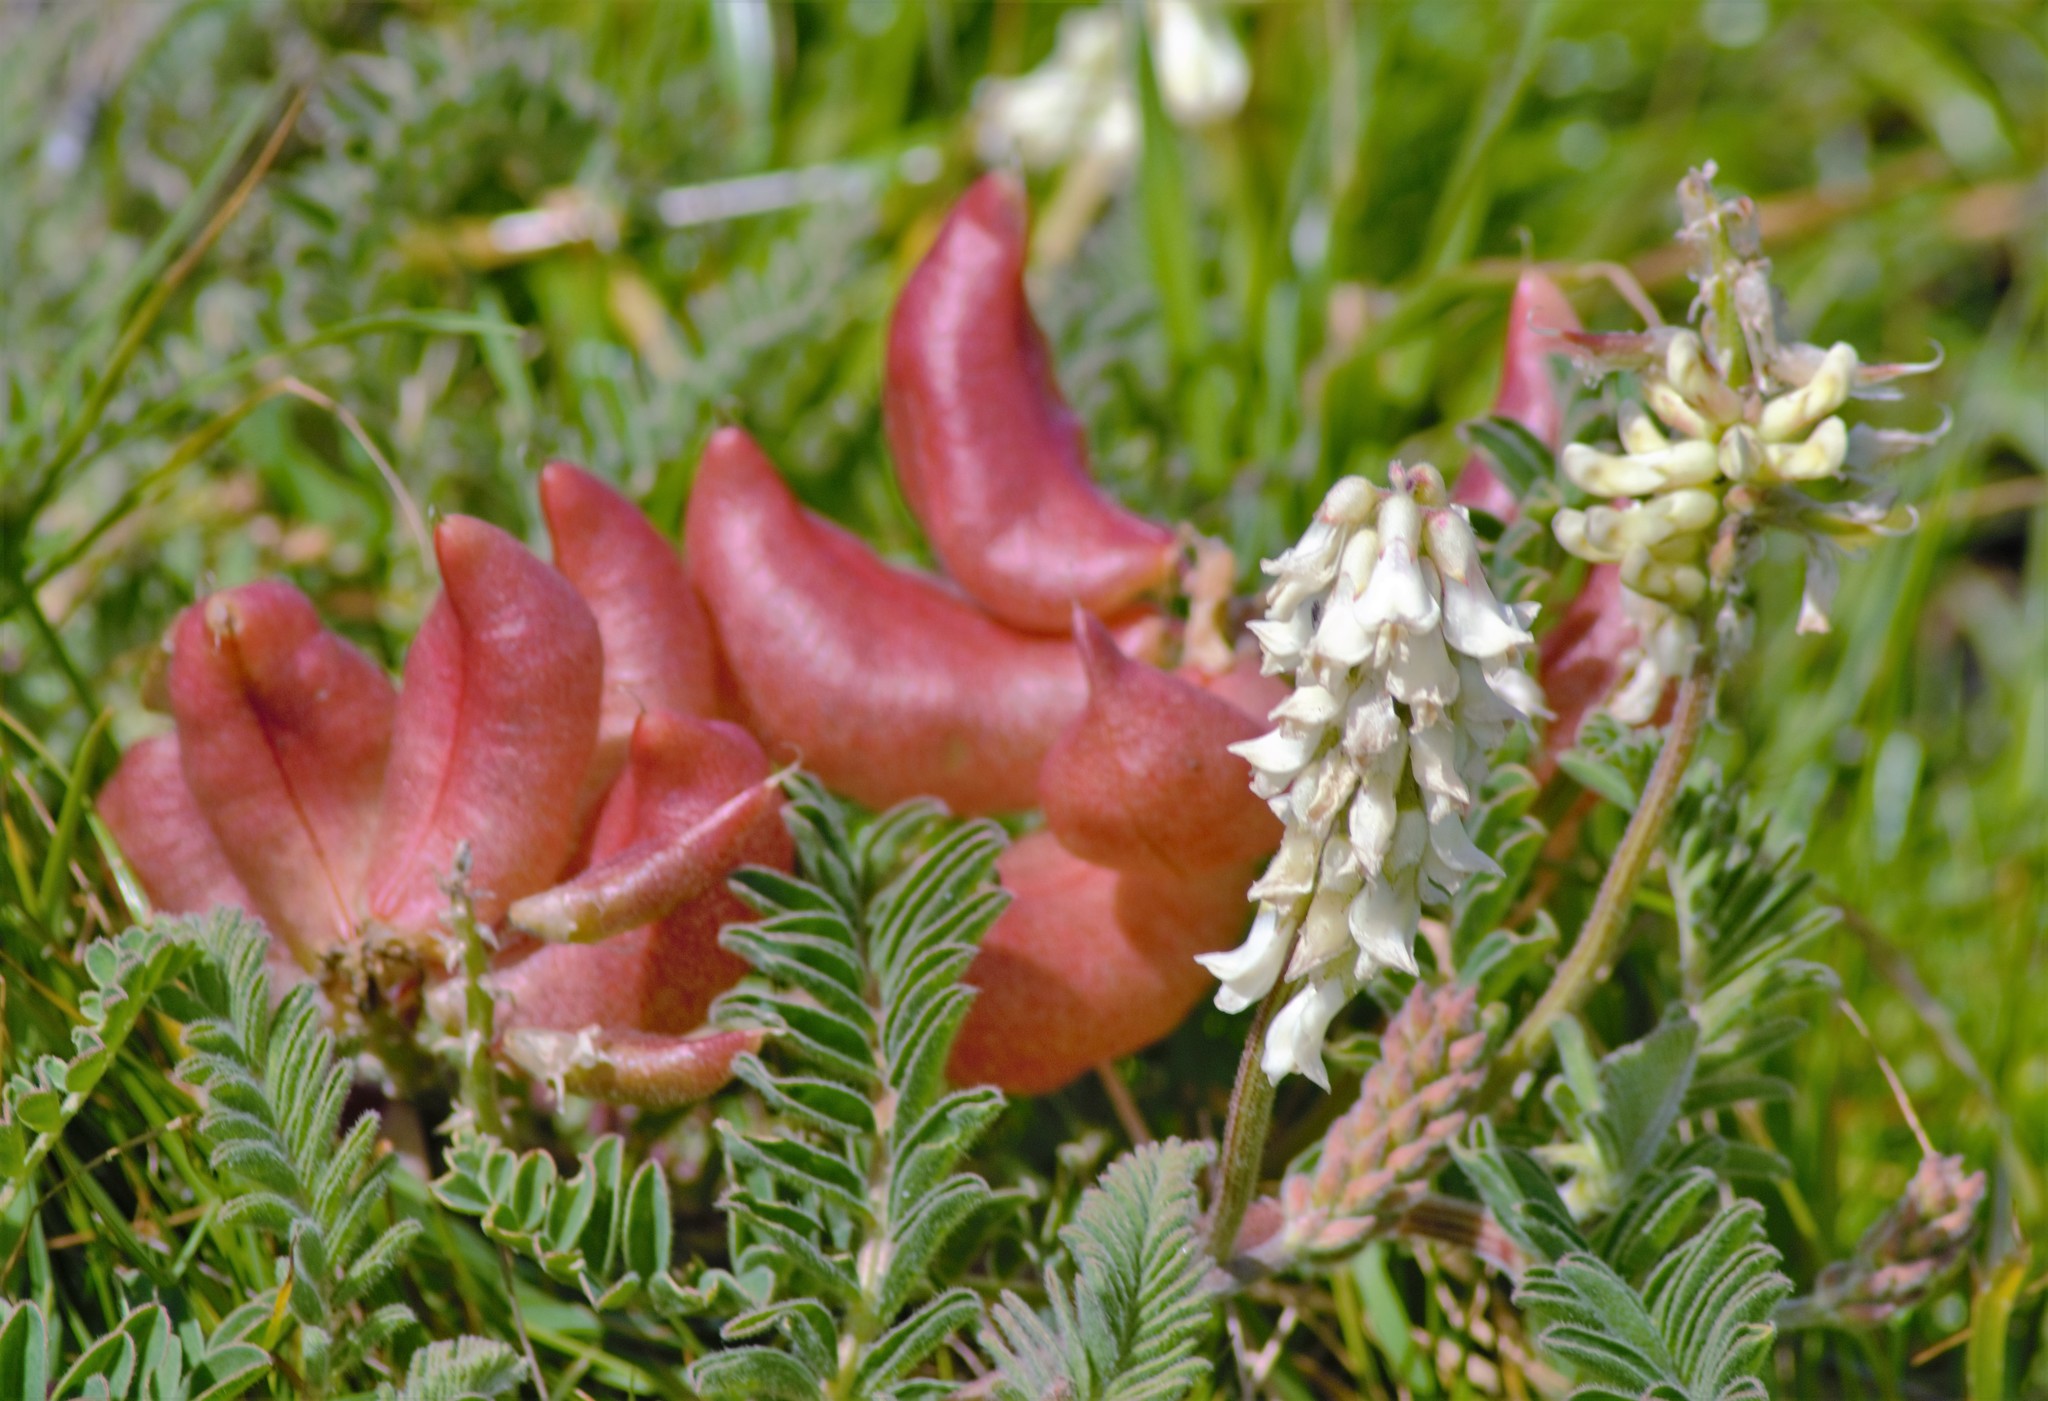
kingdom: Plantae
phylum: Tracheophyta
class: Magnoliopsida
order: Fabales
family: Fabaceae
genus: Astragalus
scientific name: Astragalus nuttallii
